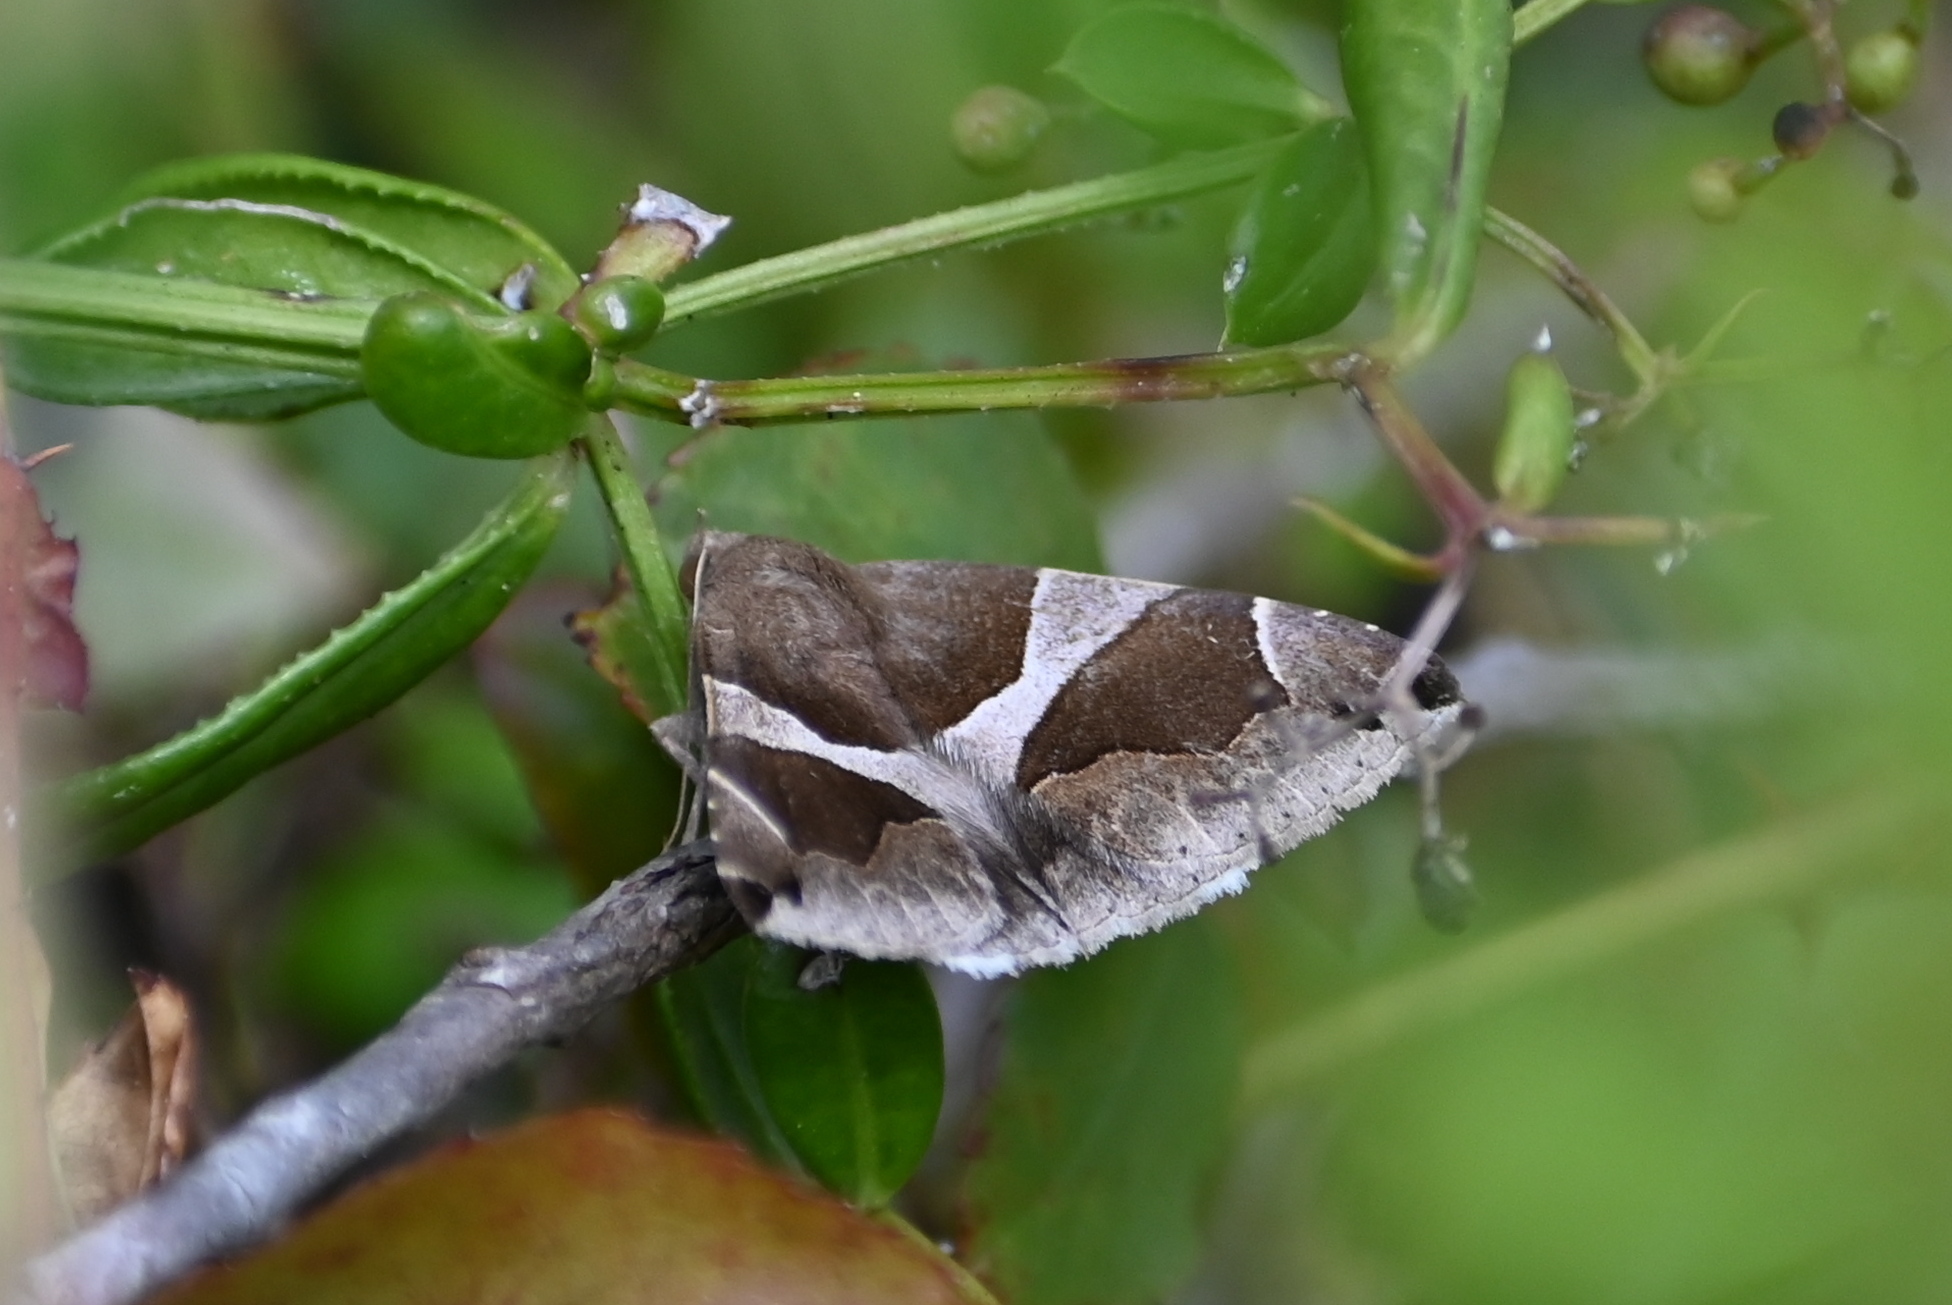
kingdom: Animalia
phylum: Arthropoda
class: Insecta
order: Lepidoptera
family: Erebidae
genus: Dysgonia
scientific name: Dysgonia algira
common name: Passenger
